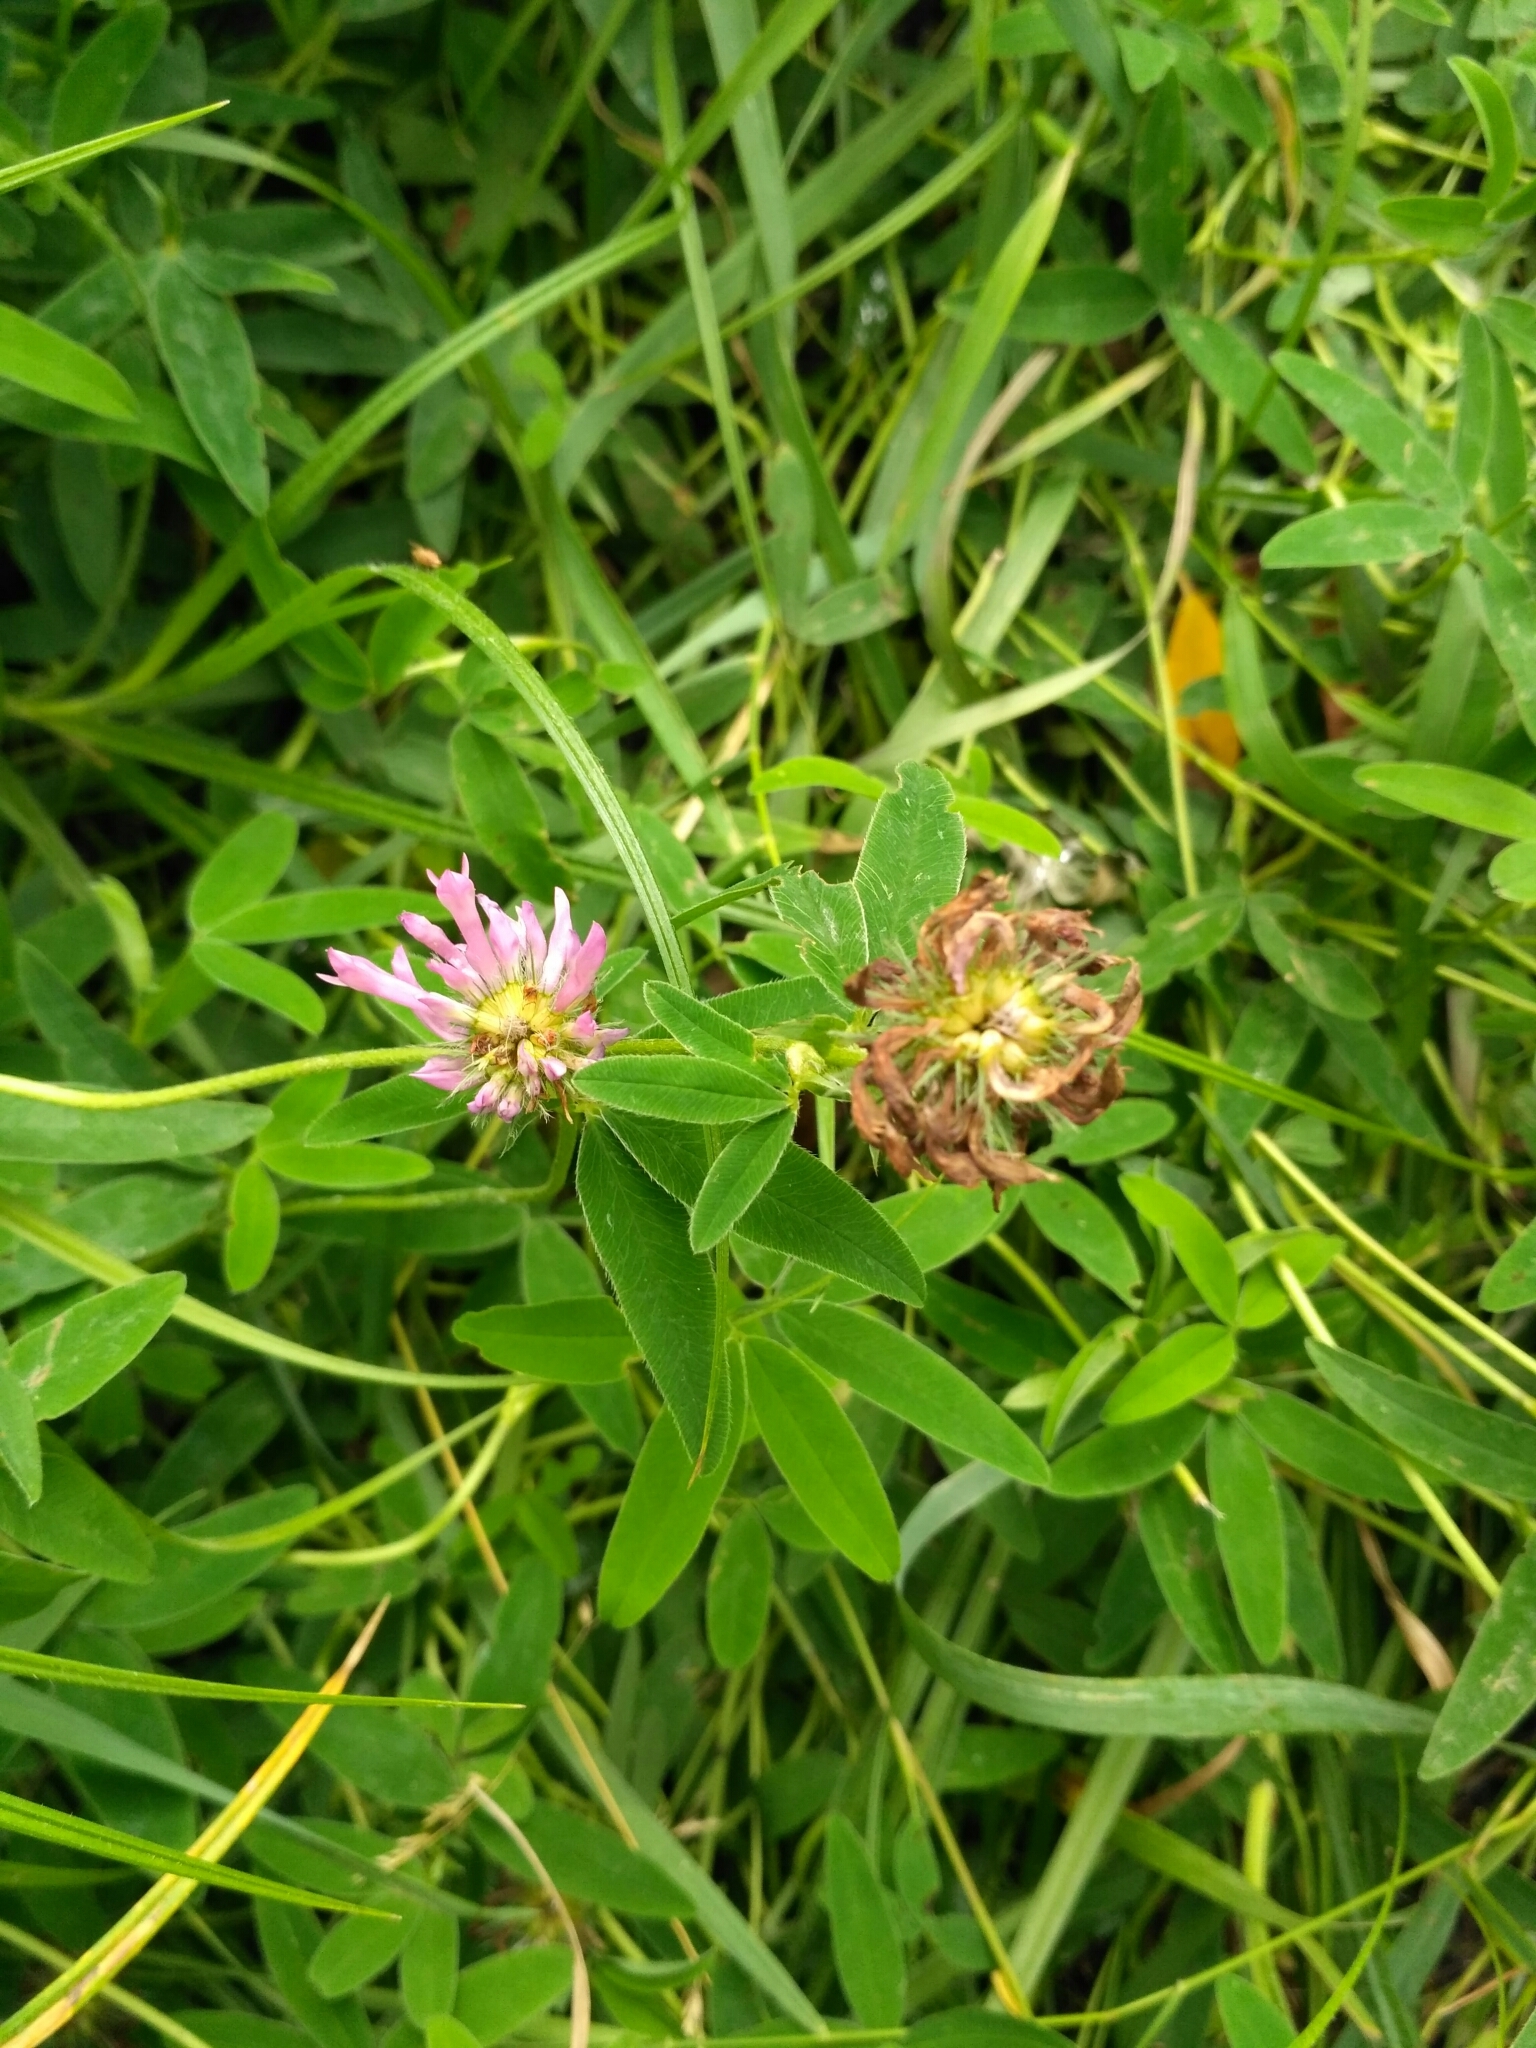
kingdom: Plantae
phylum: Tracheophyta
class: Magnoliopsida
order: Fabales
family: Fabaceae
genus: Trifolium
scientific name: Trifolium medium
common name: Zigzag clover
